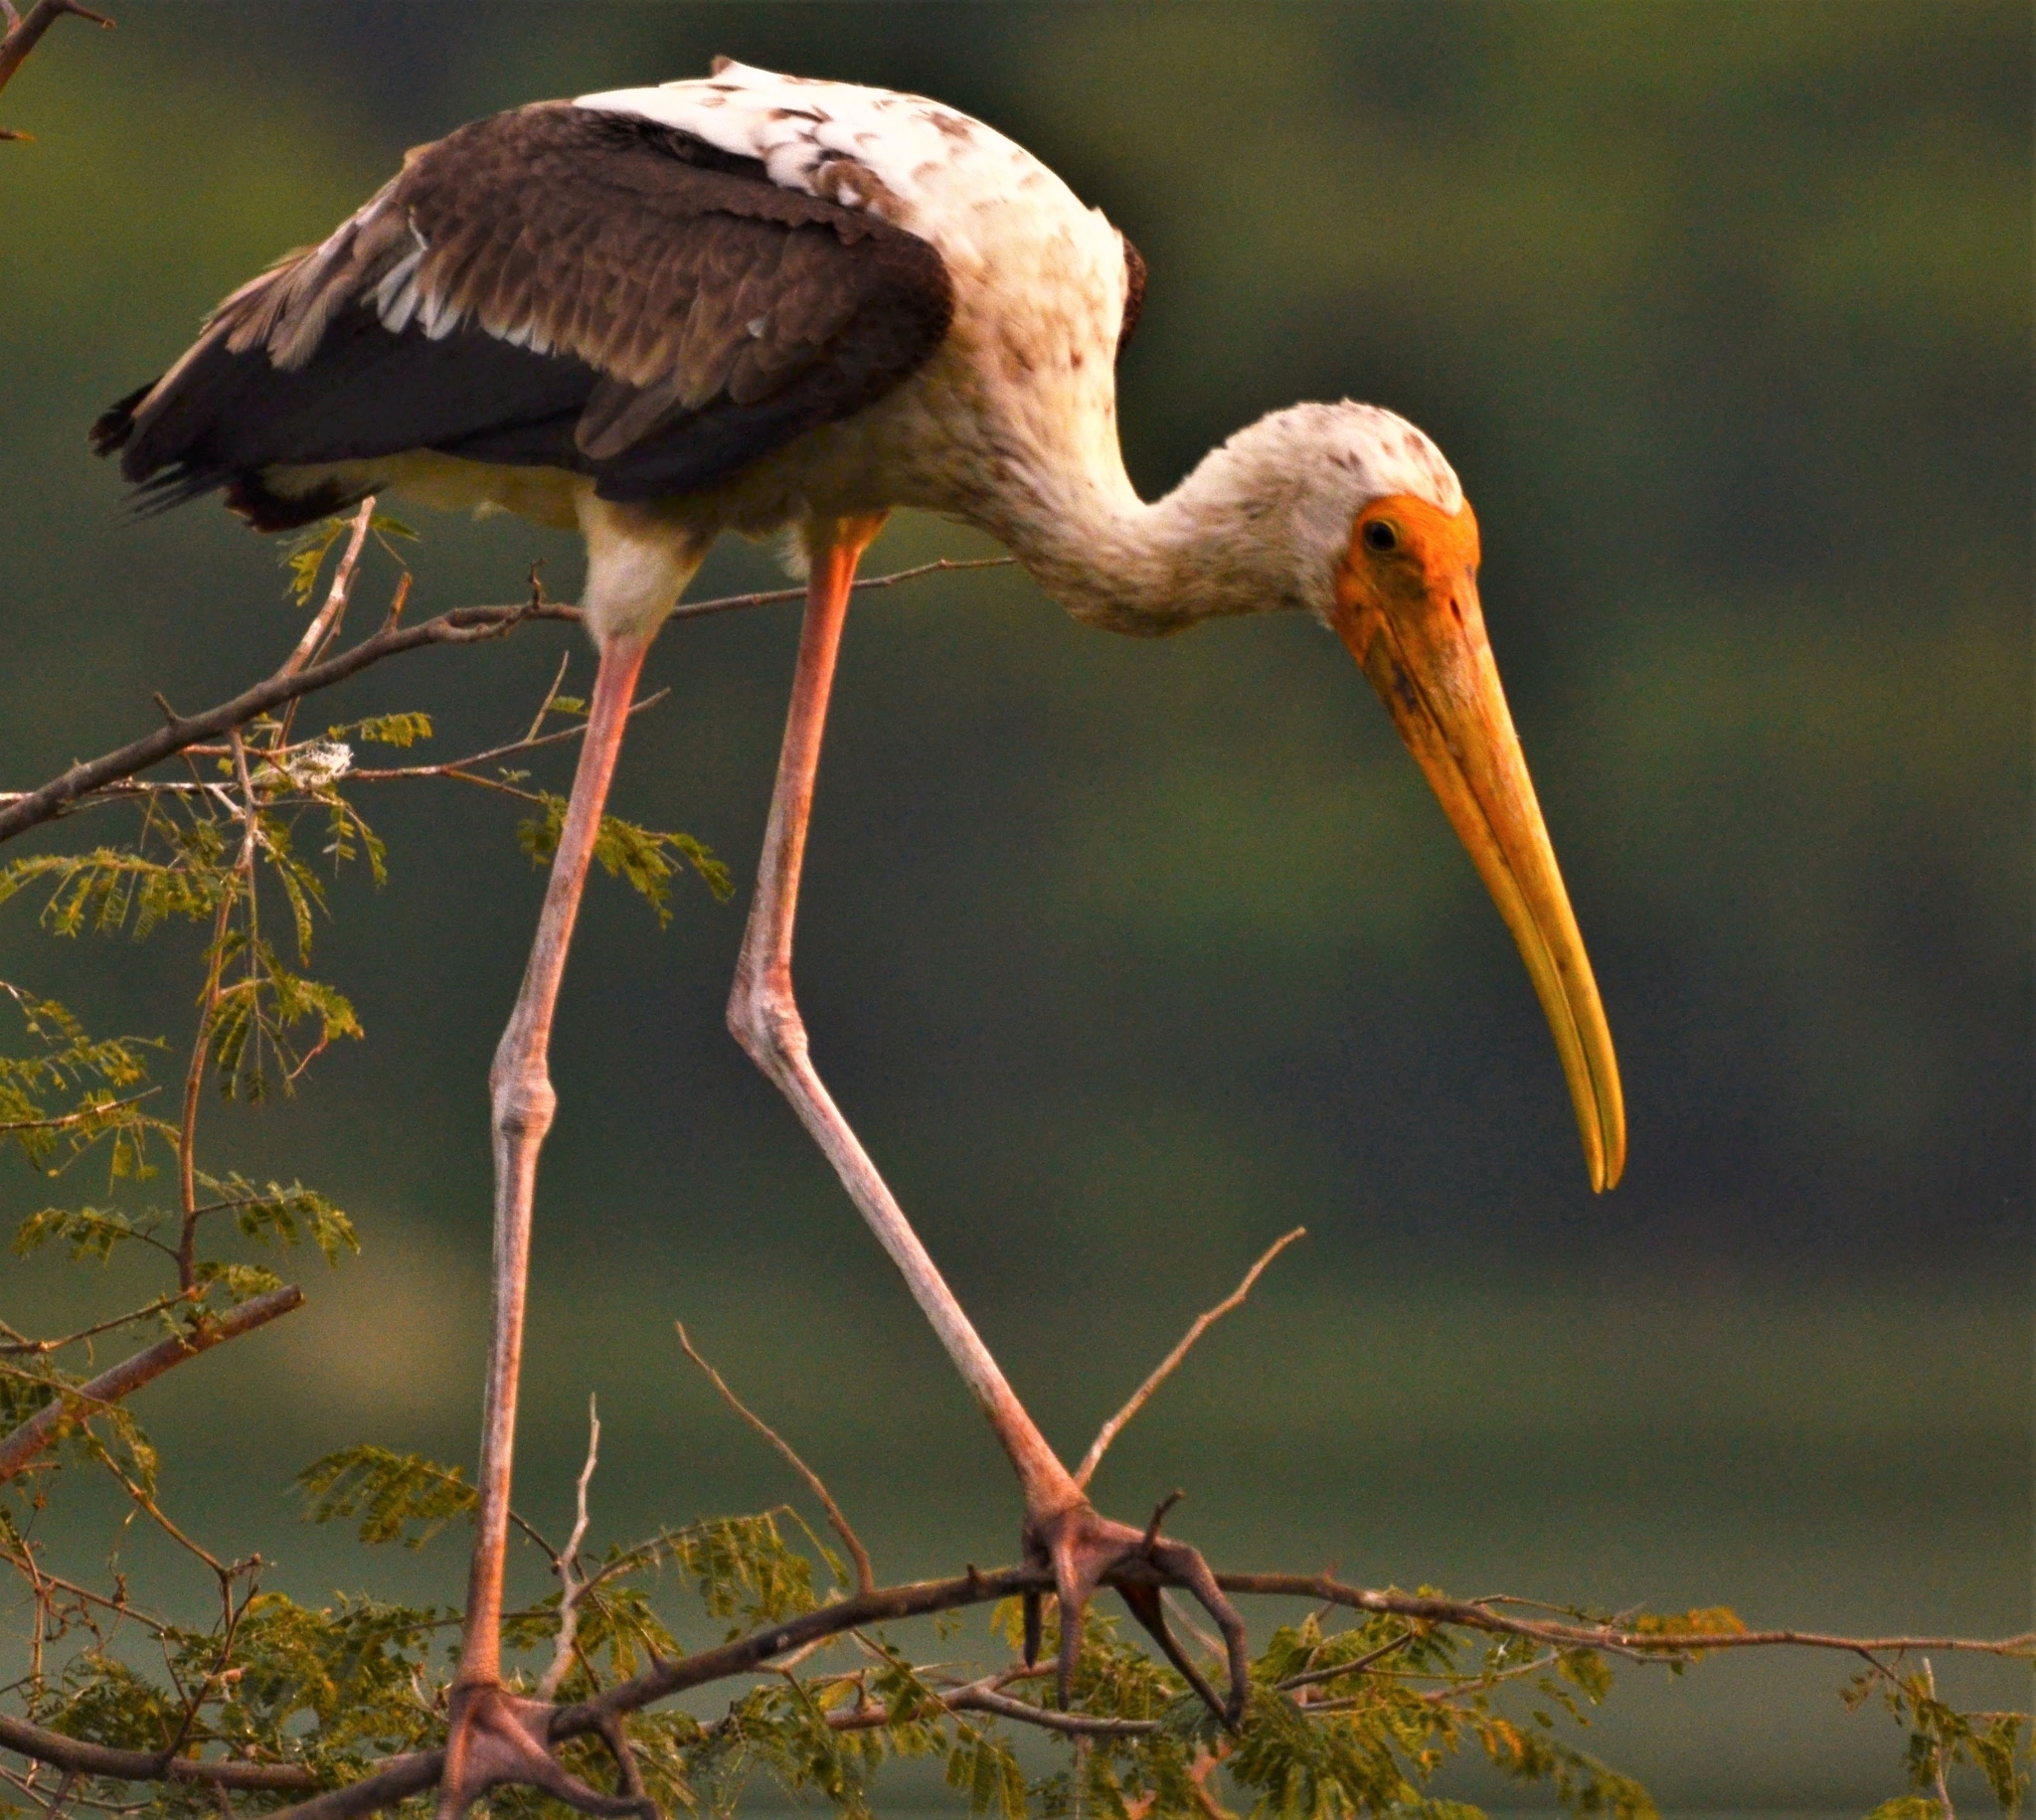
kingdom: Animalia
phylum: Chordata
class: Aves
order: Ciconiiformes
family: Ciconiidae
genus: Mycteria
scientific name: Mycteria leucocephala
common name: Painted stork
